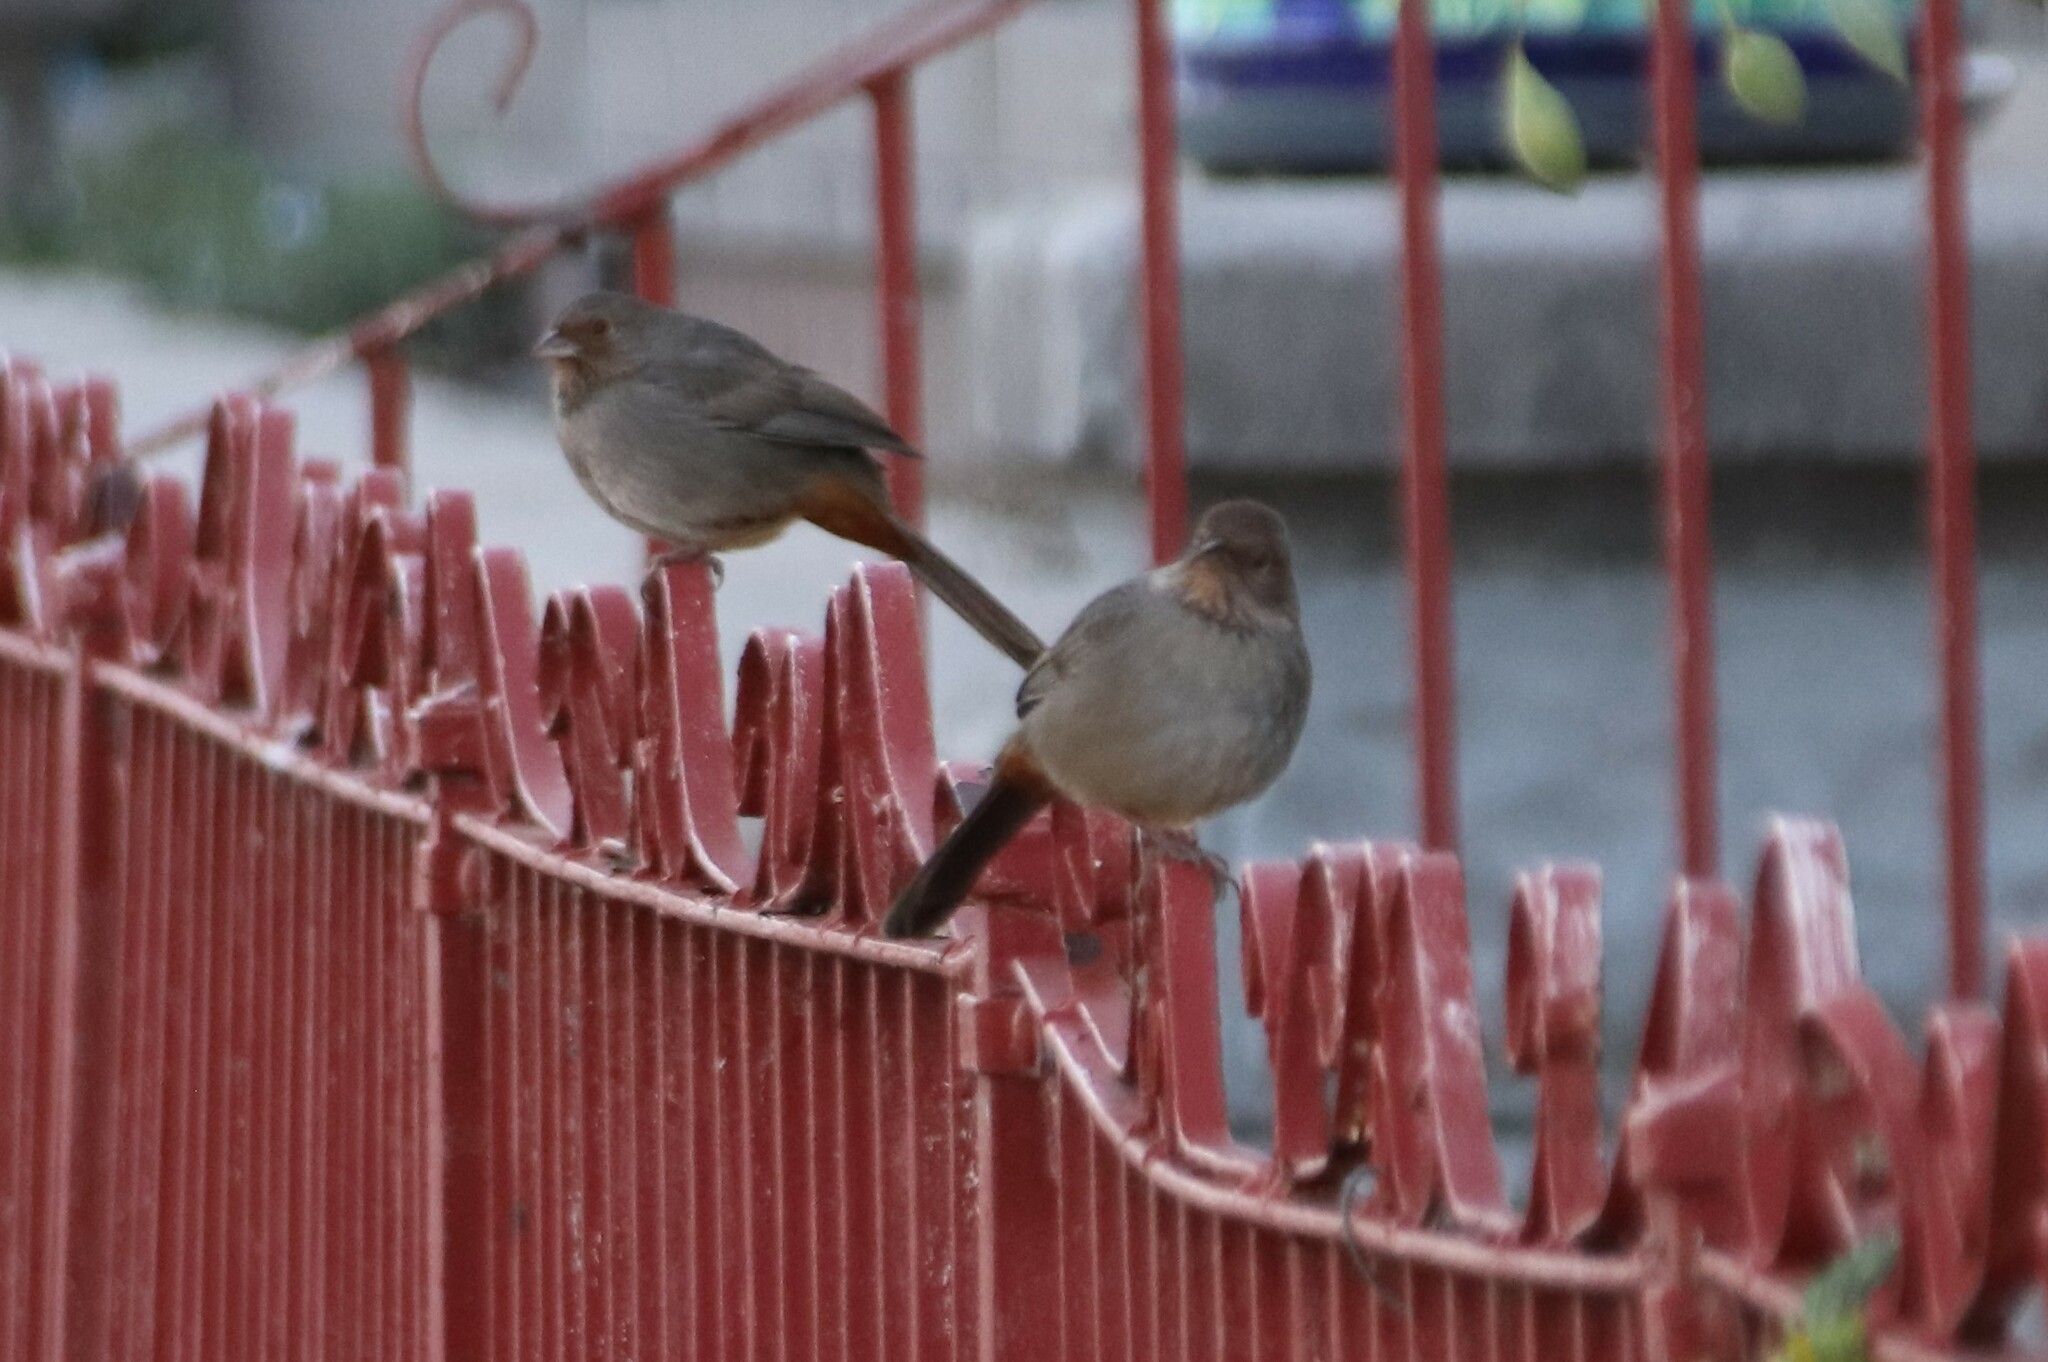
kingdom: Animalia
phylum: Chordata
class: Aves
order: Passeriformes
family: Passerellidae
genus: Melozone
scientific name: Melozone crissalis
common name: California towhee
